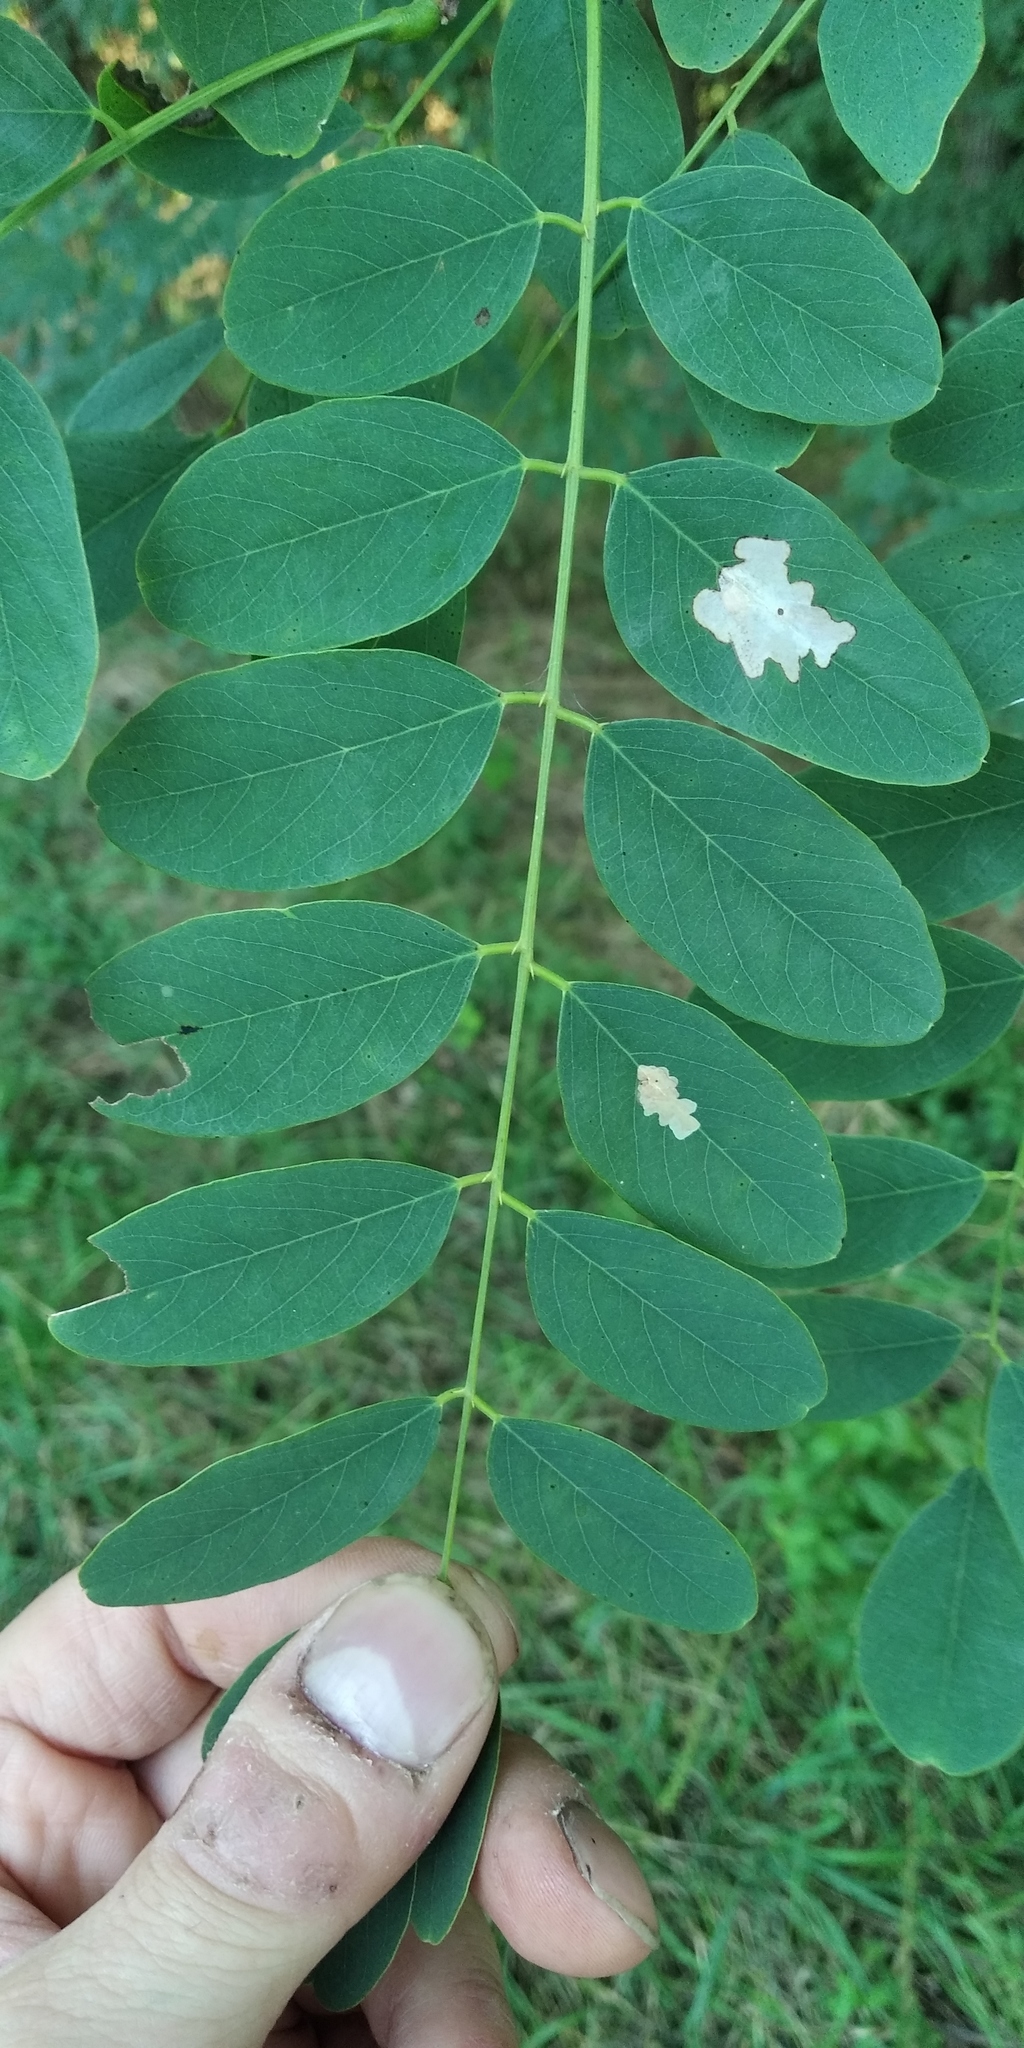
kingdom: Animalia
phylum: Arthropoda
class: Insecta
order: Lepidoptera
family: Gracillariidae
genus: Parectopa
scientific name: Parectopa robiniella
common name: Locust digitate leafminer
